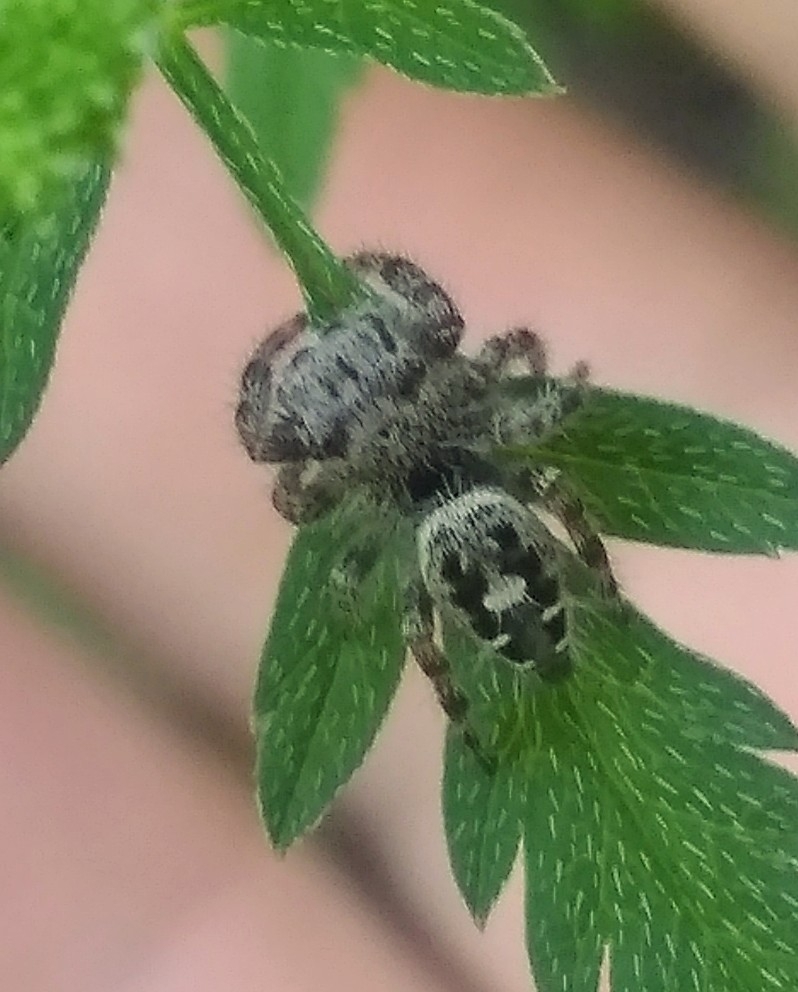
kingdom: Animalia
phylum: Arthropoda
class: Arachnida
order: Araneae
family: Salticidae
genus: Phidippus
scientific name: Phidippus putnami
